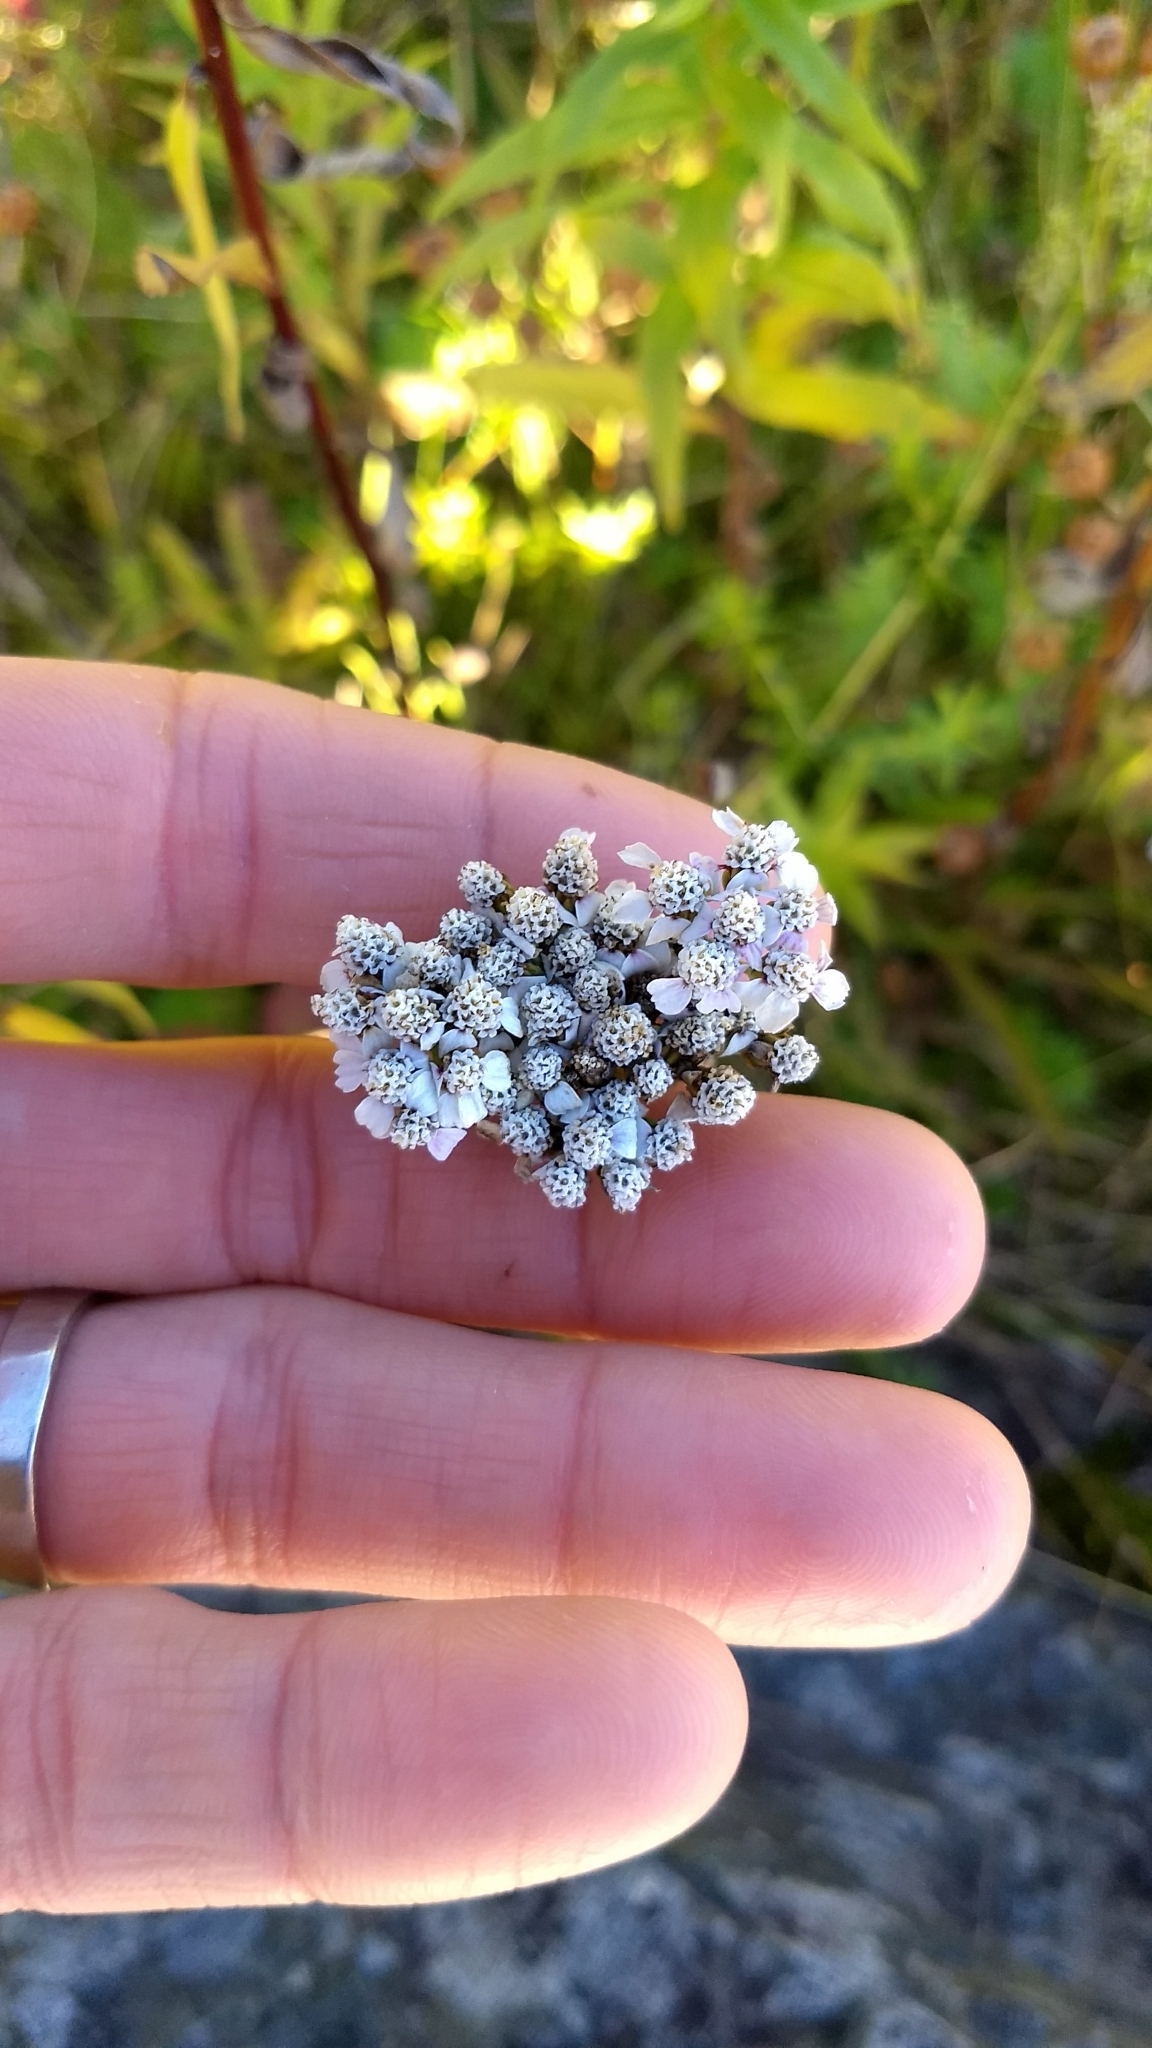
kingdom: Plantae
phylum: Tracheophyta
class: Magnoliopsida
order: Asterales
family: Asteraceae
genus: Achillea
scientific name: Achillea millefolium
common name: Yarrow
